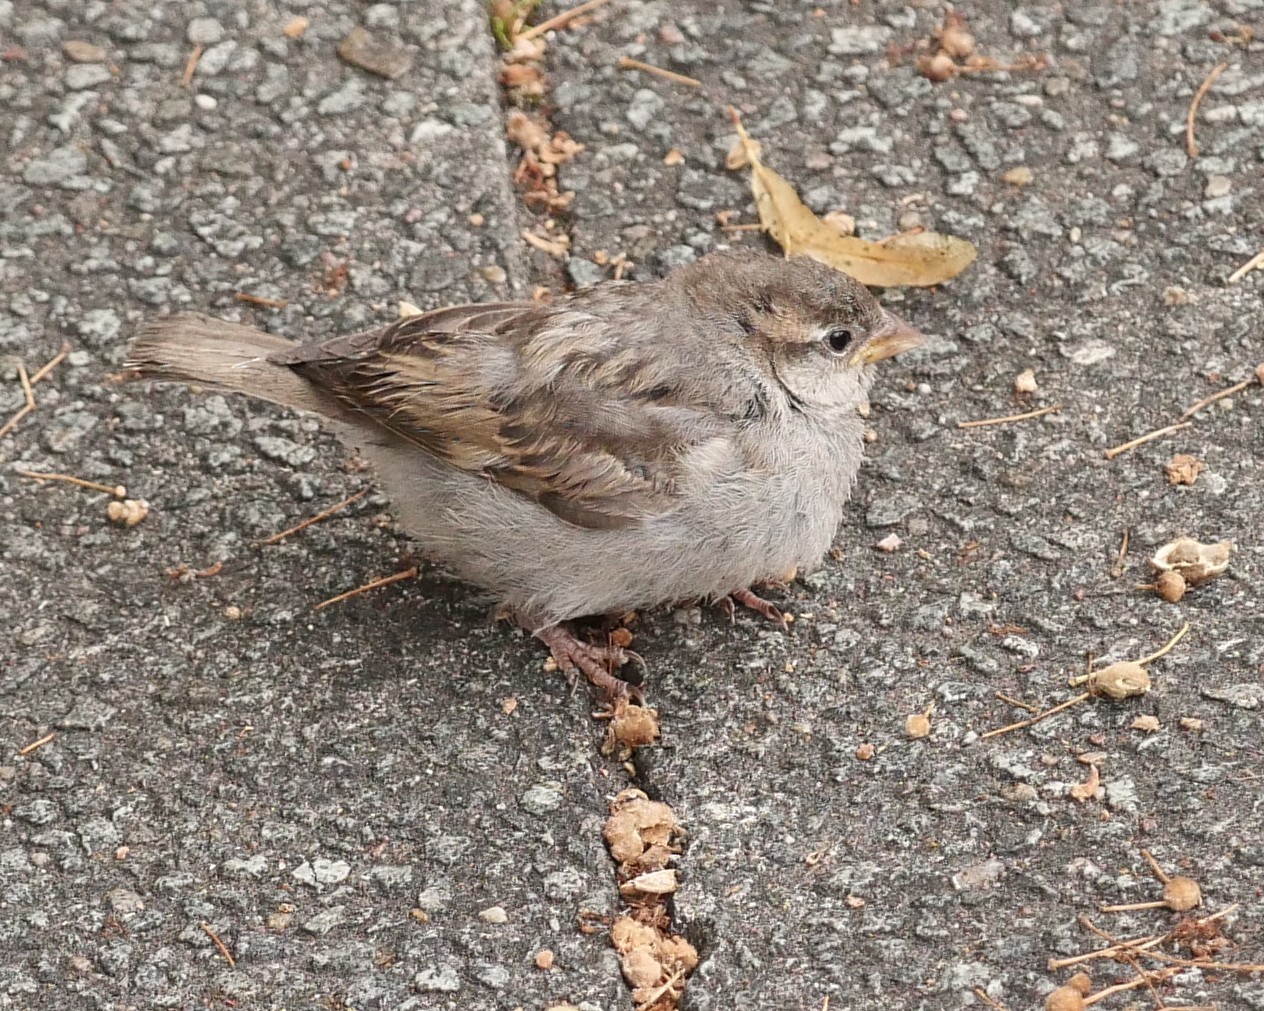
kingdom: Animalia
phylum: Chordata
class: Aves
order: Passeriformes
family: Passeridae
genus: Passer
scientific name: Passer domesticus
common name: House sparrow
